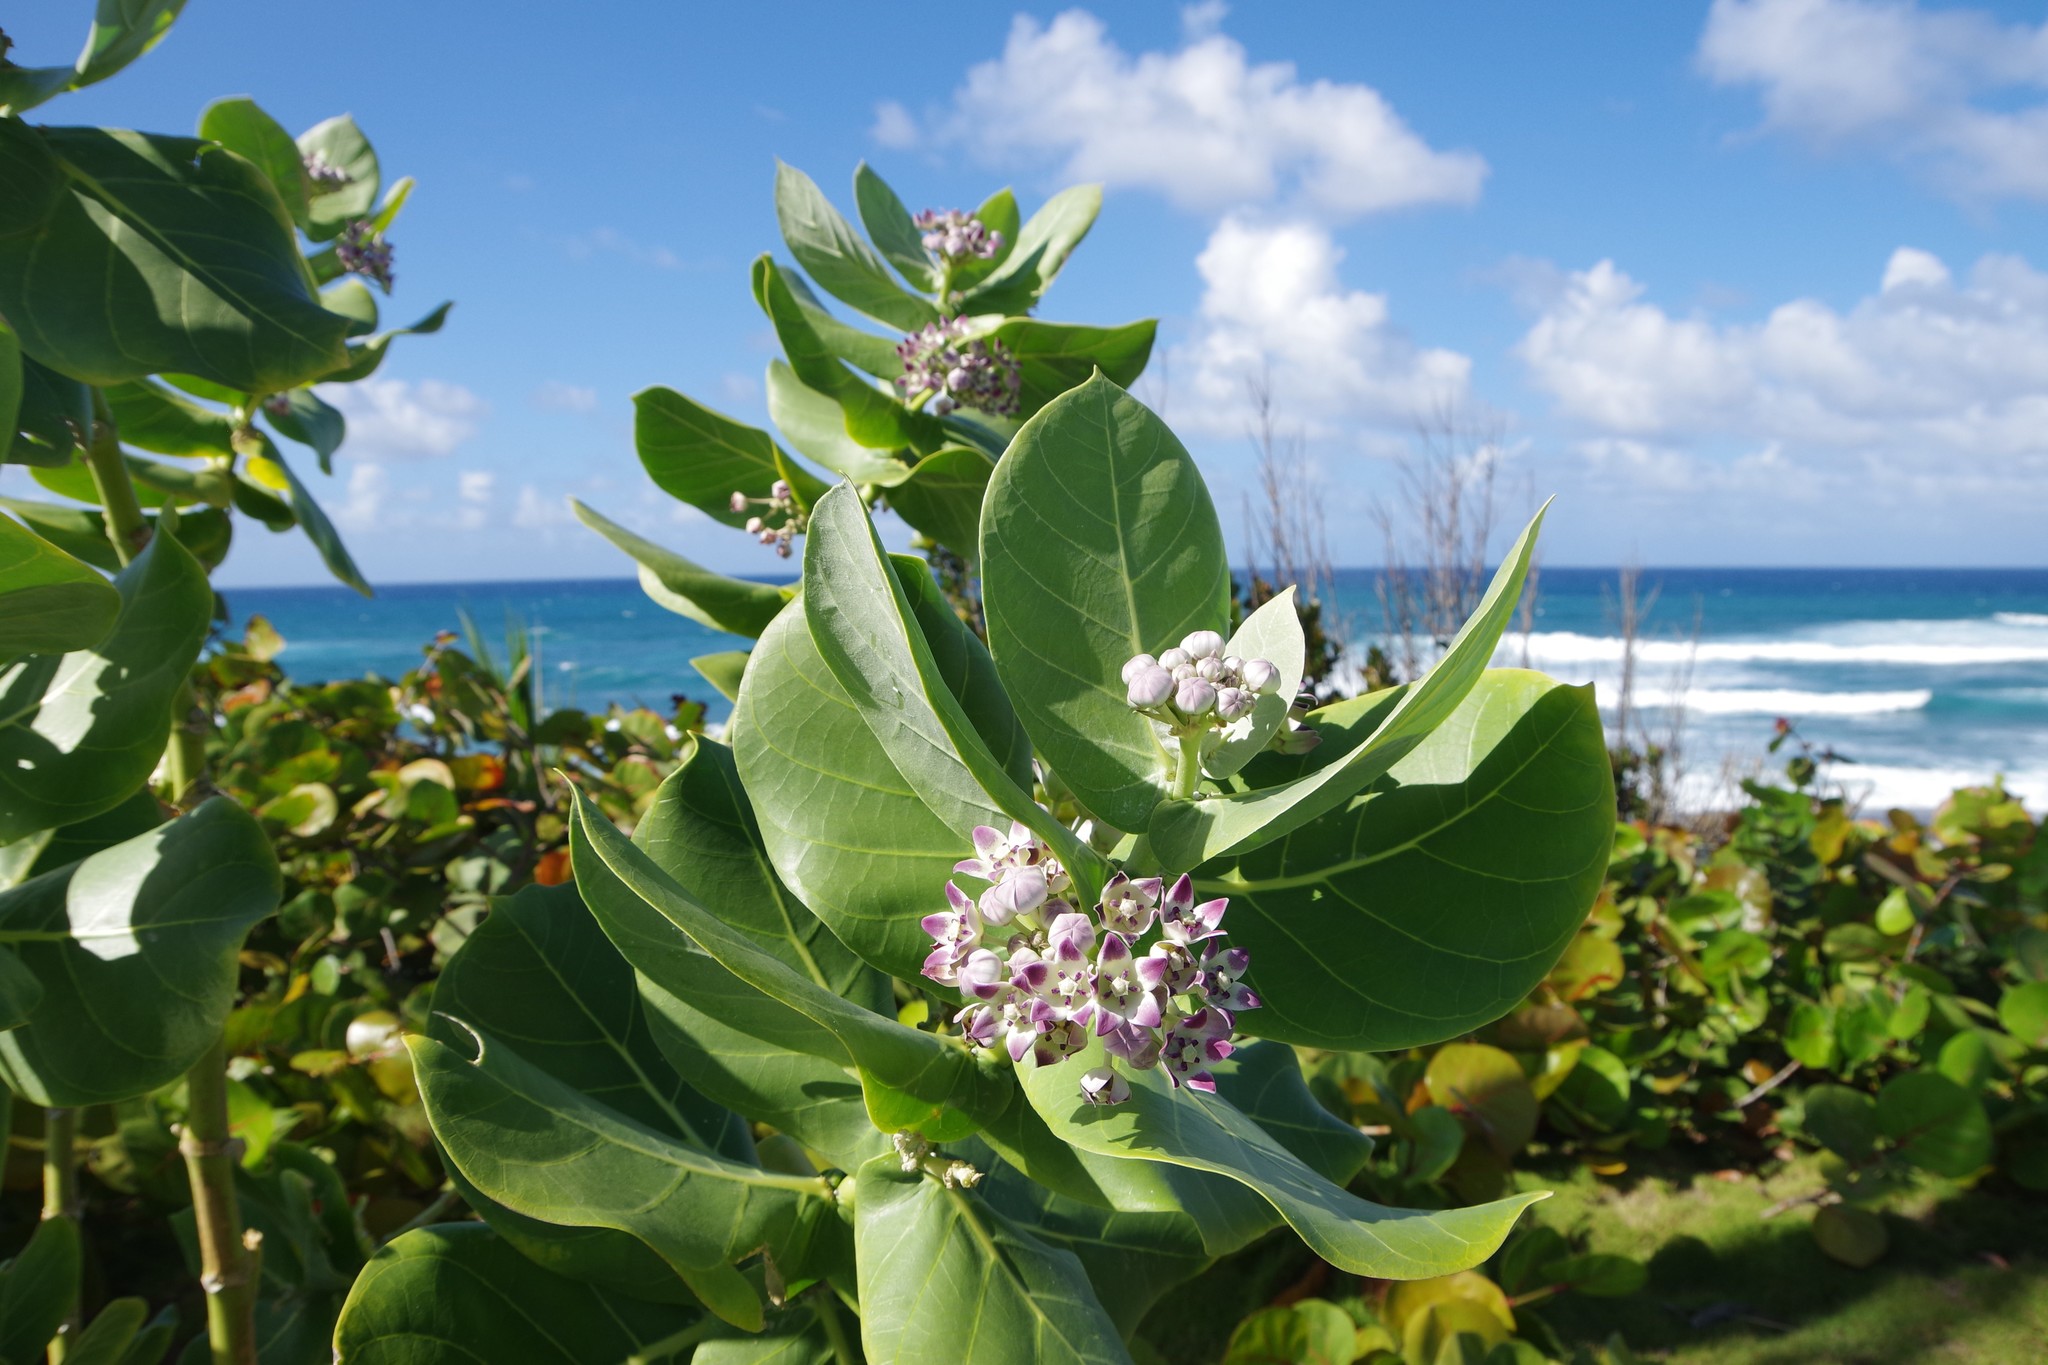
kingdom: Plantae
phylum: Tracheophyta
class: Magnoliopsida
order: Gentianales
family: Apocynaceae
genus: Calotropis
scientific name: Calotropis procera
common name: Roostertree
